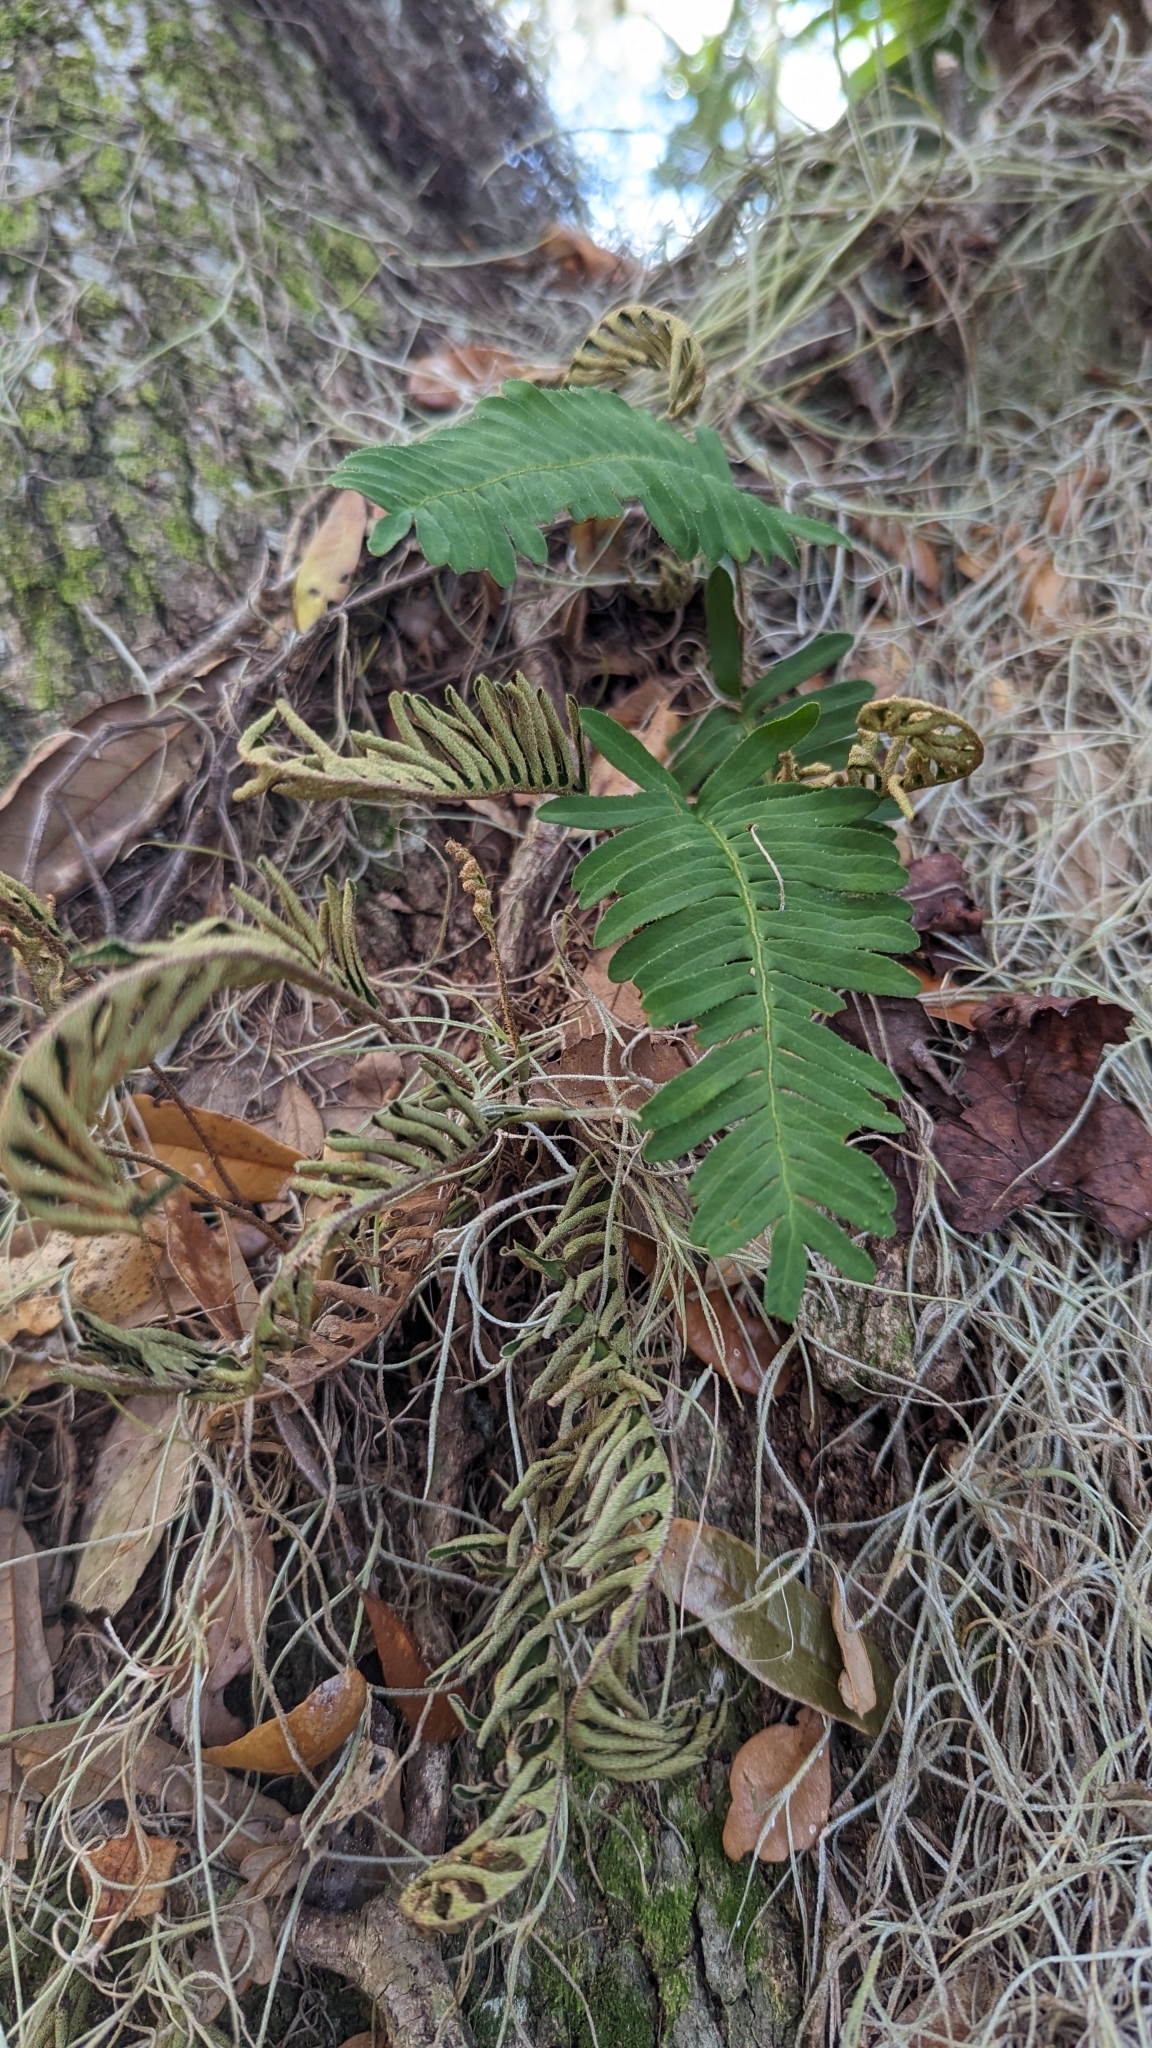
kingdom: Plantae
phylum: Tracheophyta
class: Polypodiopsida
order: Polypodiales
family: Polypodiaceae
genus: Pleopeltis
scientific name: Pleopeltis michauxiana
